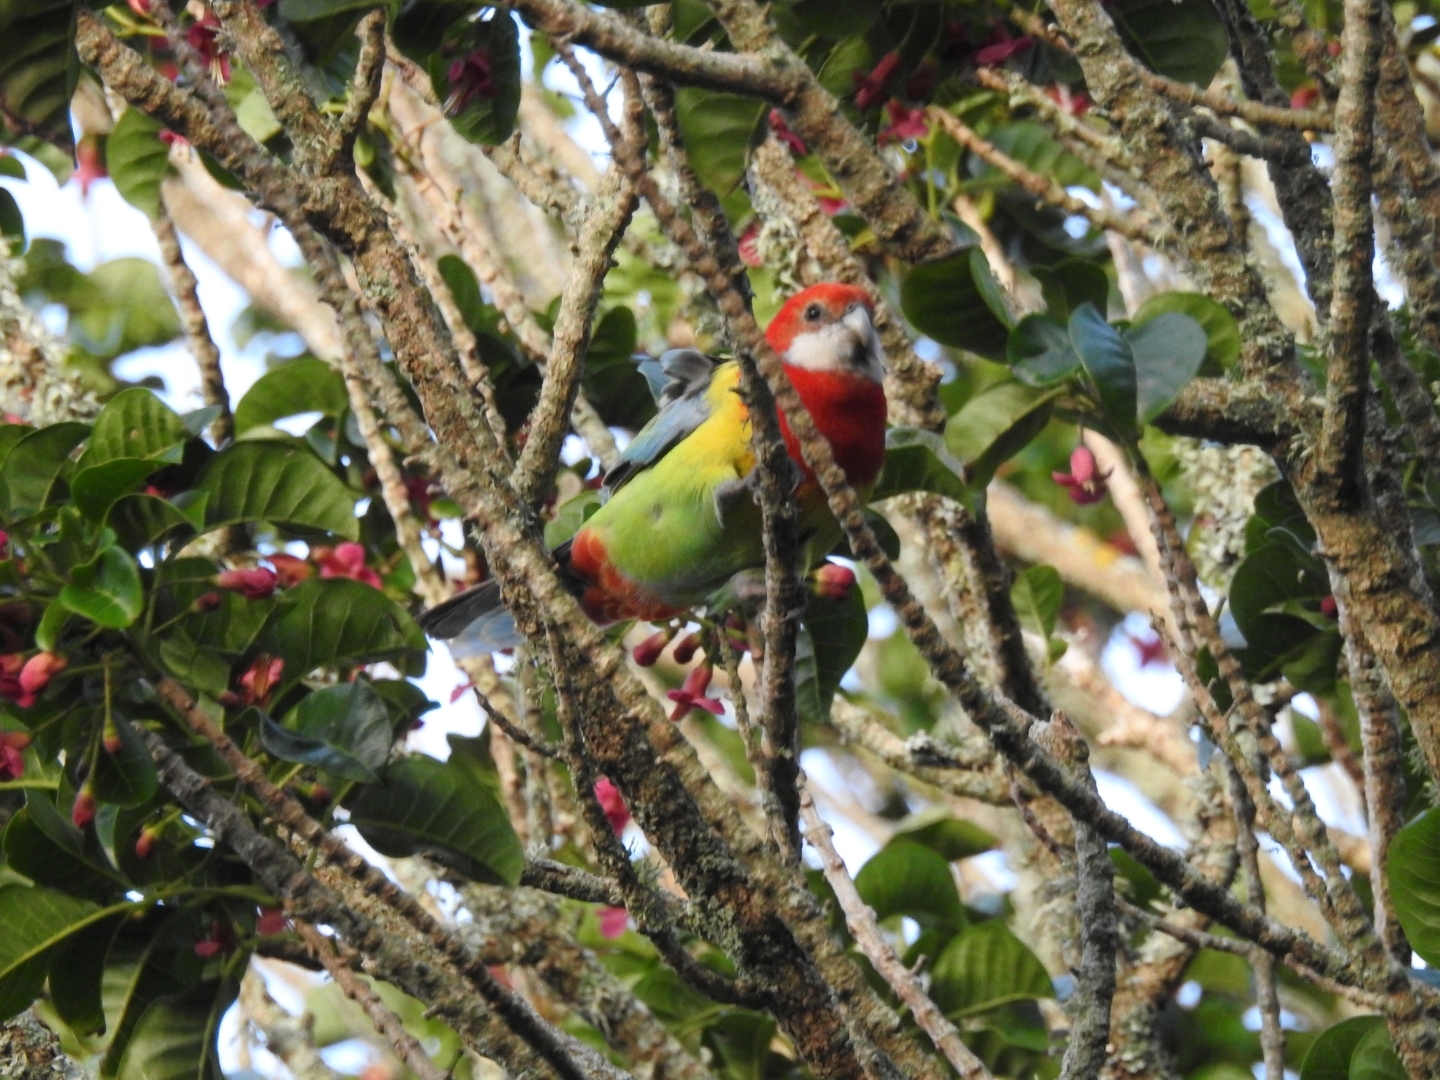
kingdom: Animalia
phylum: Chordata
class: Aves
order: Psittaciformes
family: Psittacidae
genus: Platycercus
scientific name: Platycercus eximius
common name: Eastern rosella
